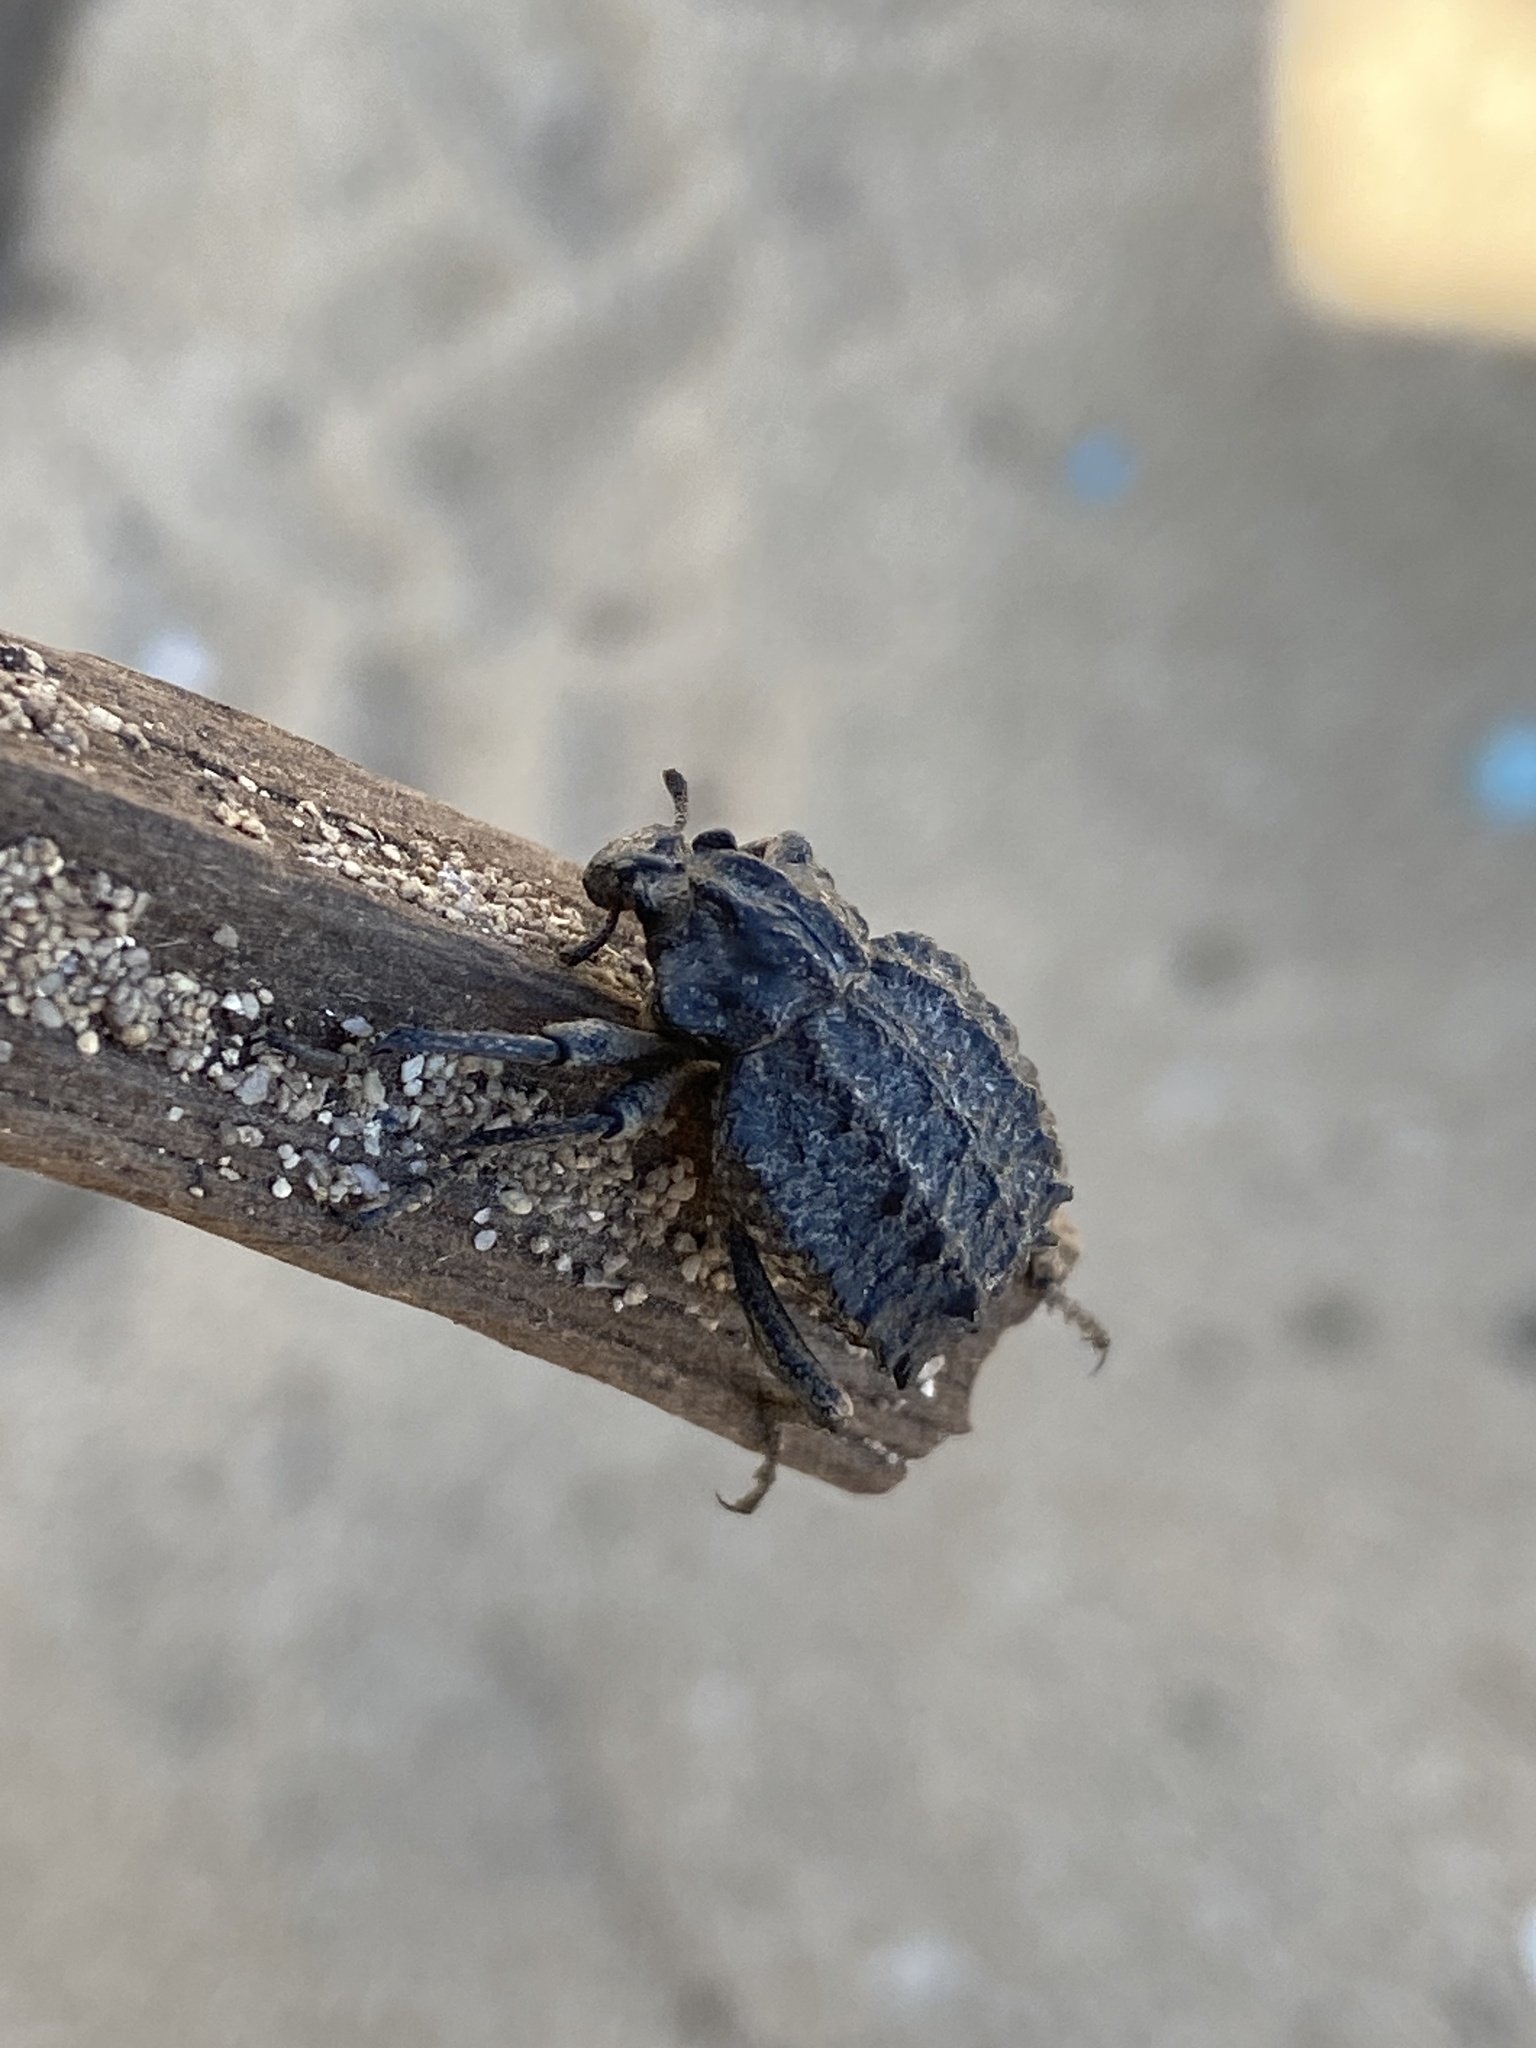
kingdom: Animalia
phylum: Arthropoda
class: Insecta
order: Coleoptera
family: Brachyceridae
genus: Brachycerus
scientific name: Brachycerus repertus
